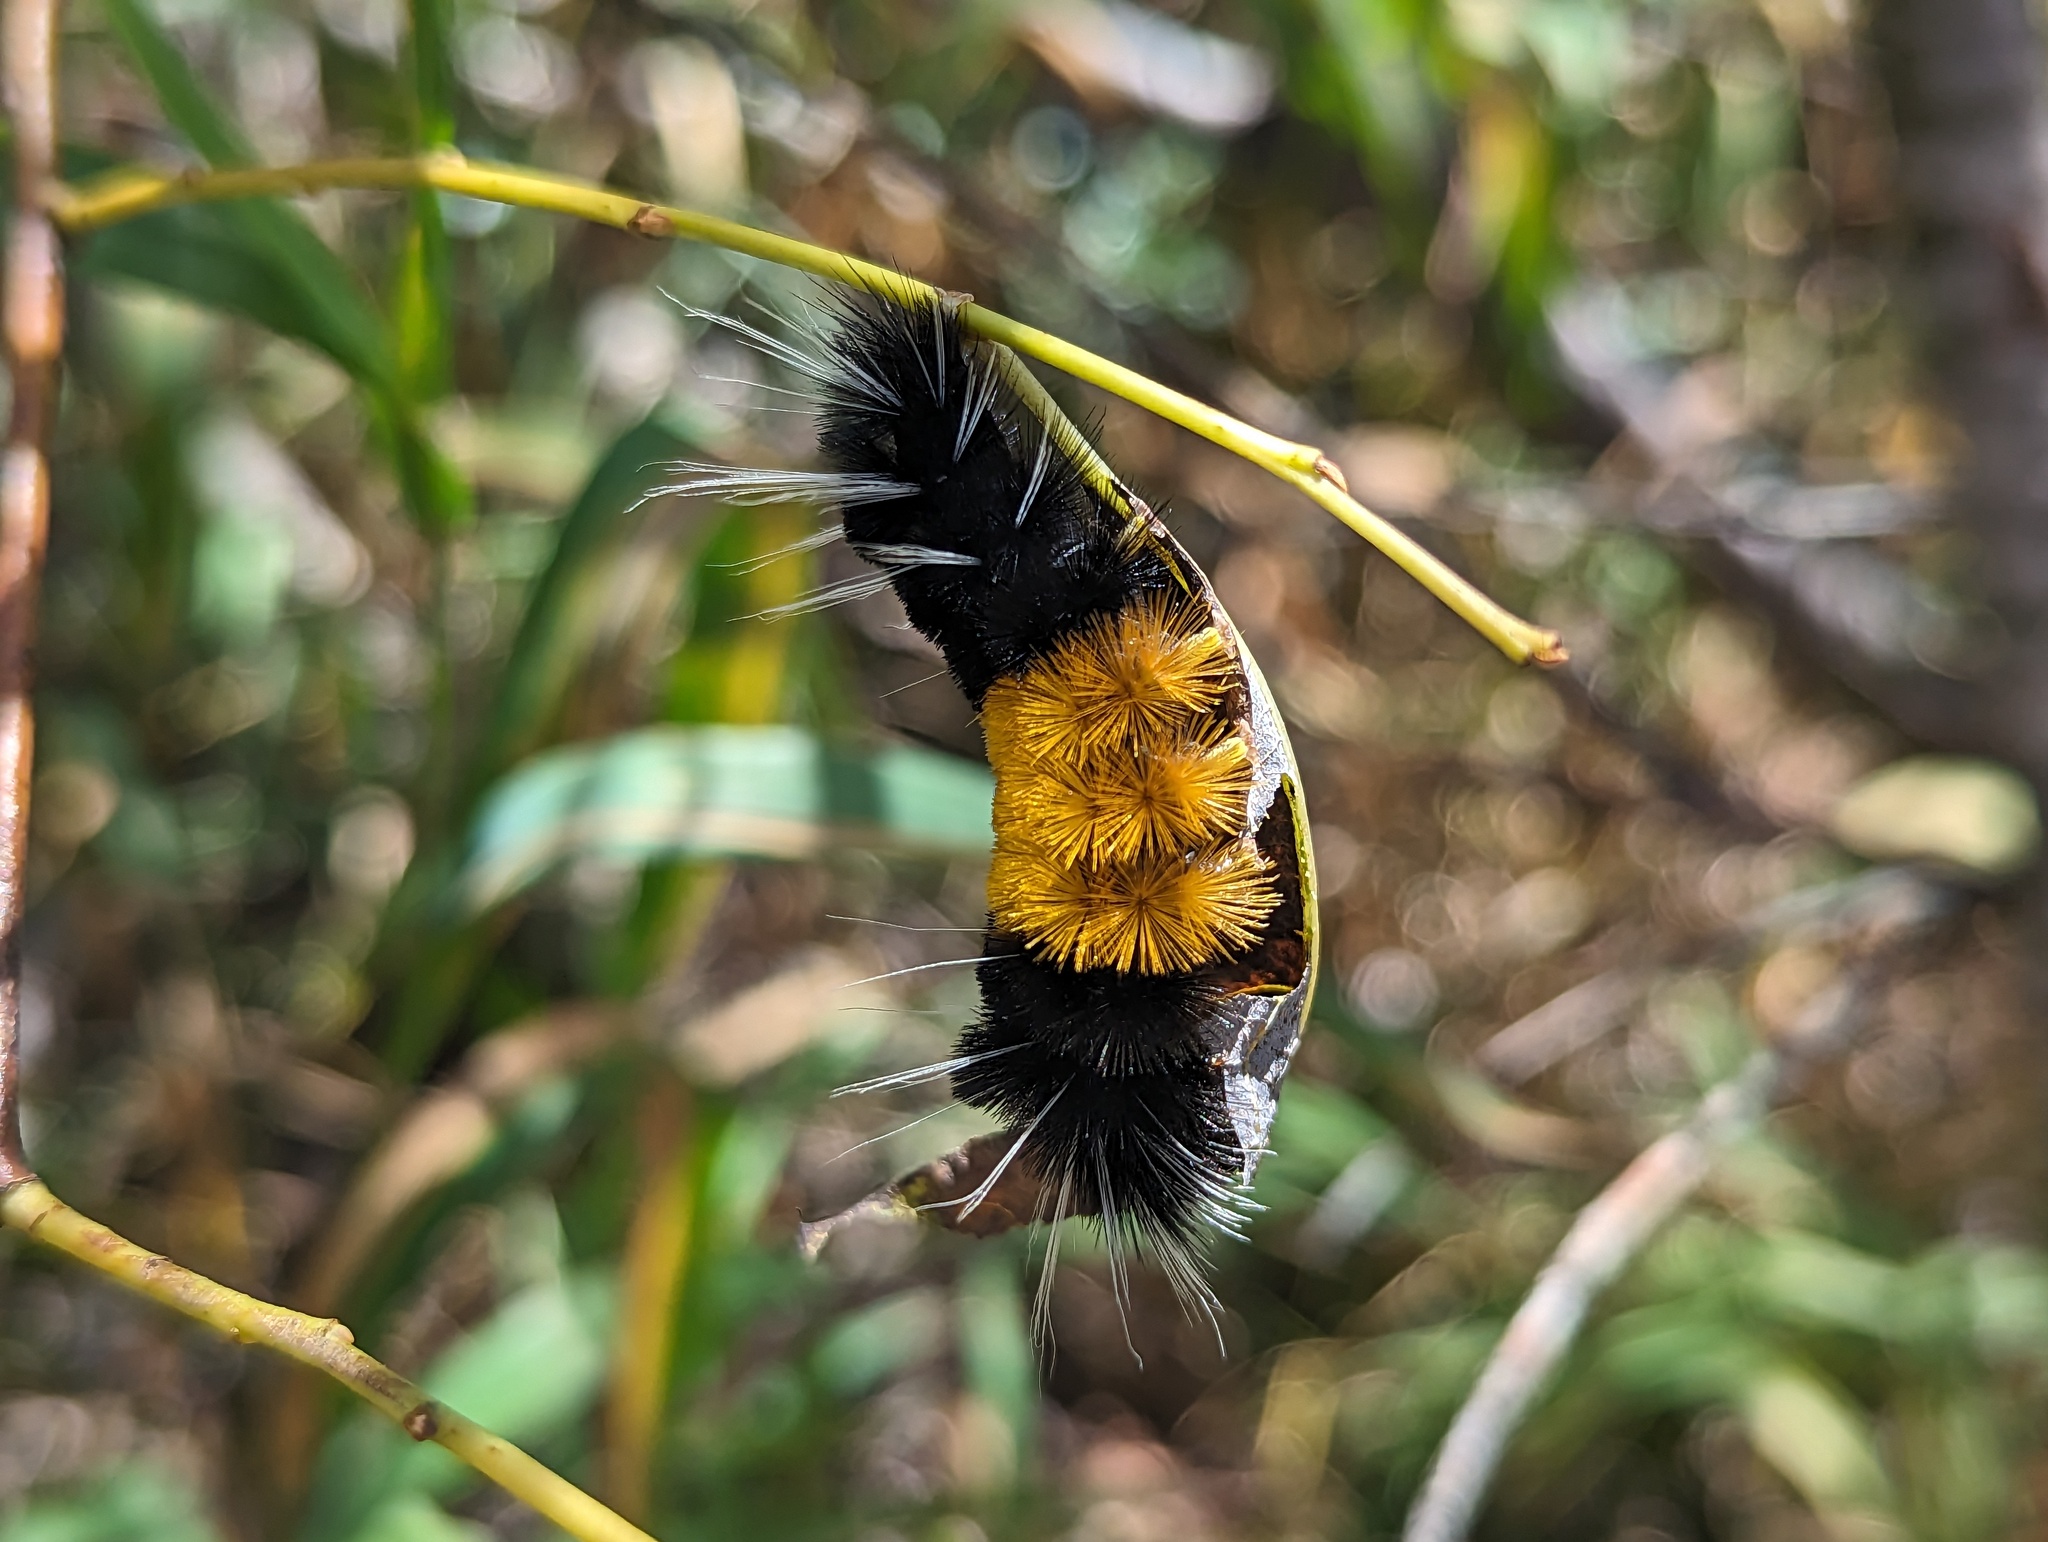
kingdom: Animalia
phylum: Arthropoda
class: Insecta
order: Lepidoptera
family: Erebidae
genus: Lophocampa
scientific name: Lophocampa maculata
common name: Spotted tussock moth
